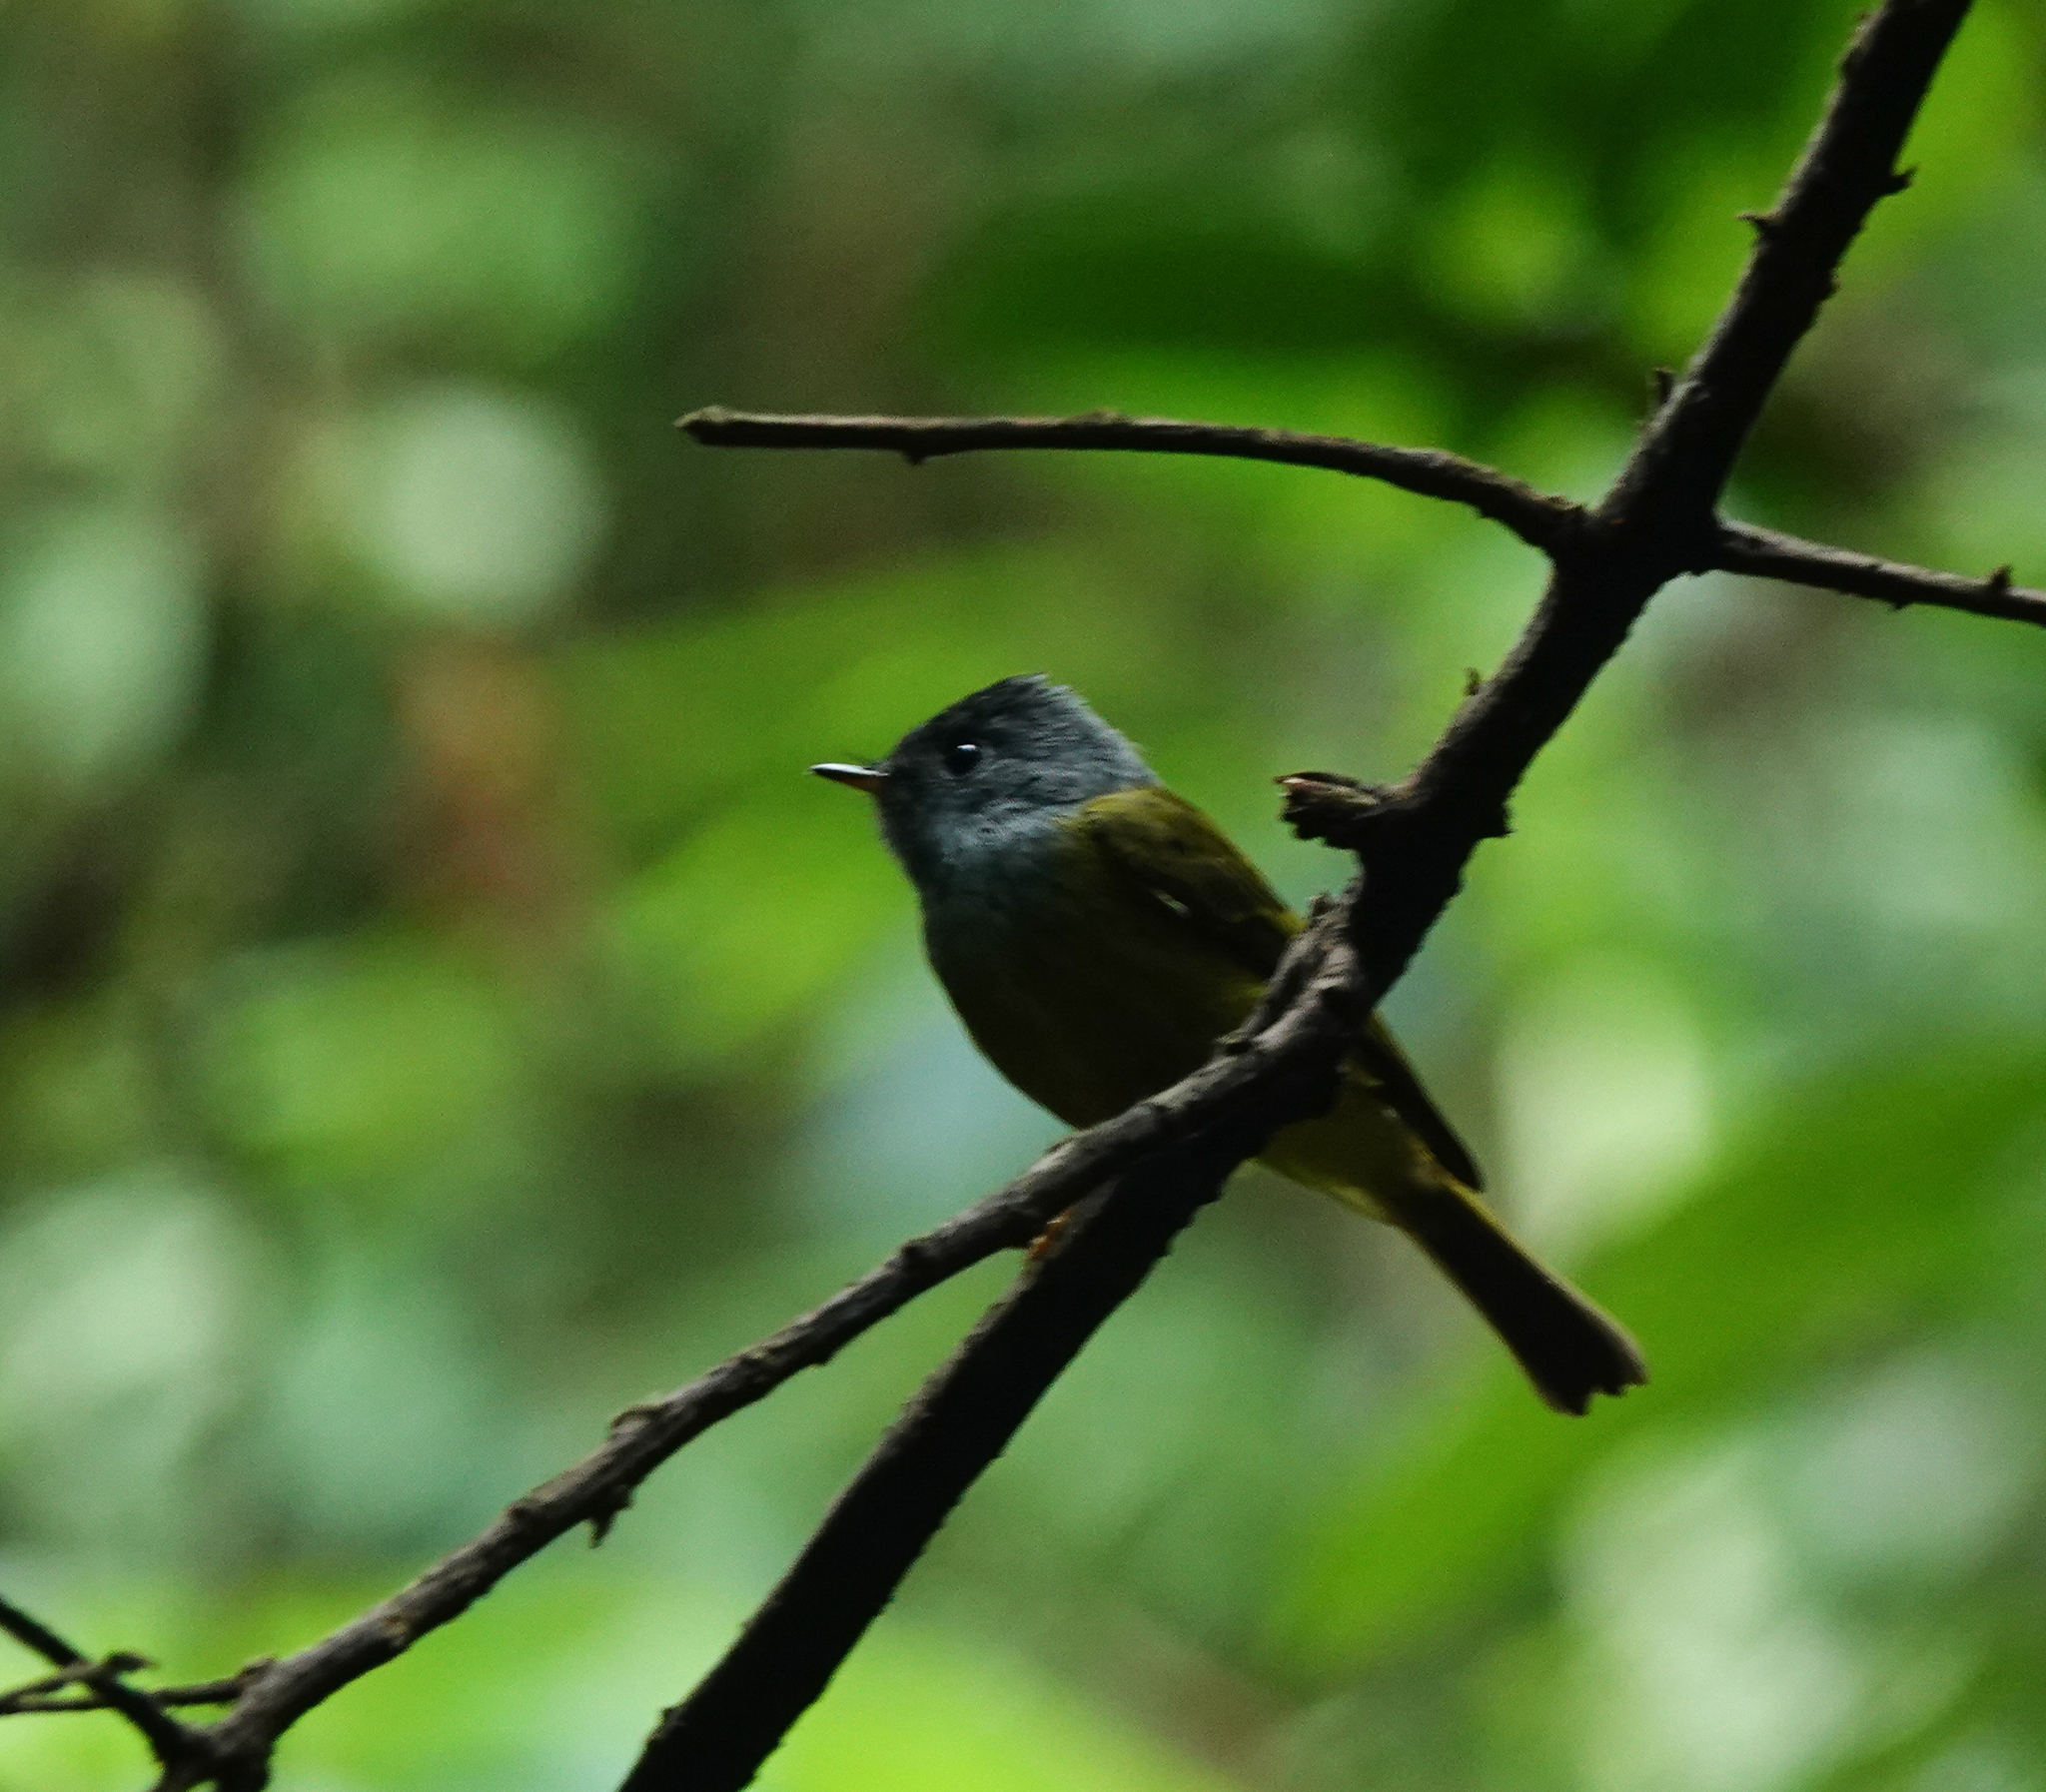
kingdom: Animalia
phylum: Chordata
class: Aves
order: Passeriformes
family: Stenostiridae
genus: Culicicapa
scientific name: Culicicapa ceylonensis
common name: Grey-headed canary-flycatcher
